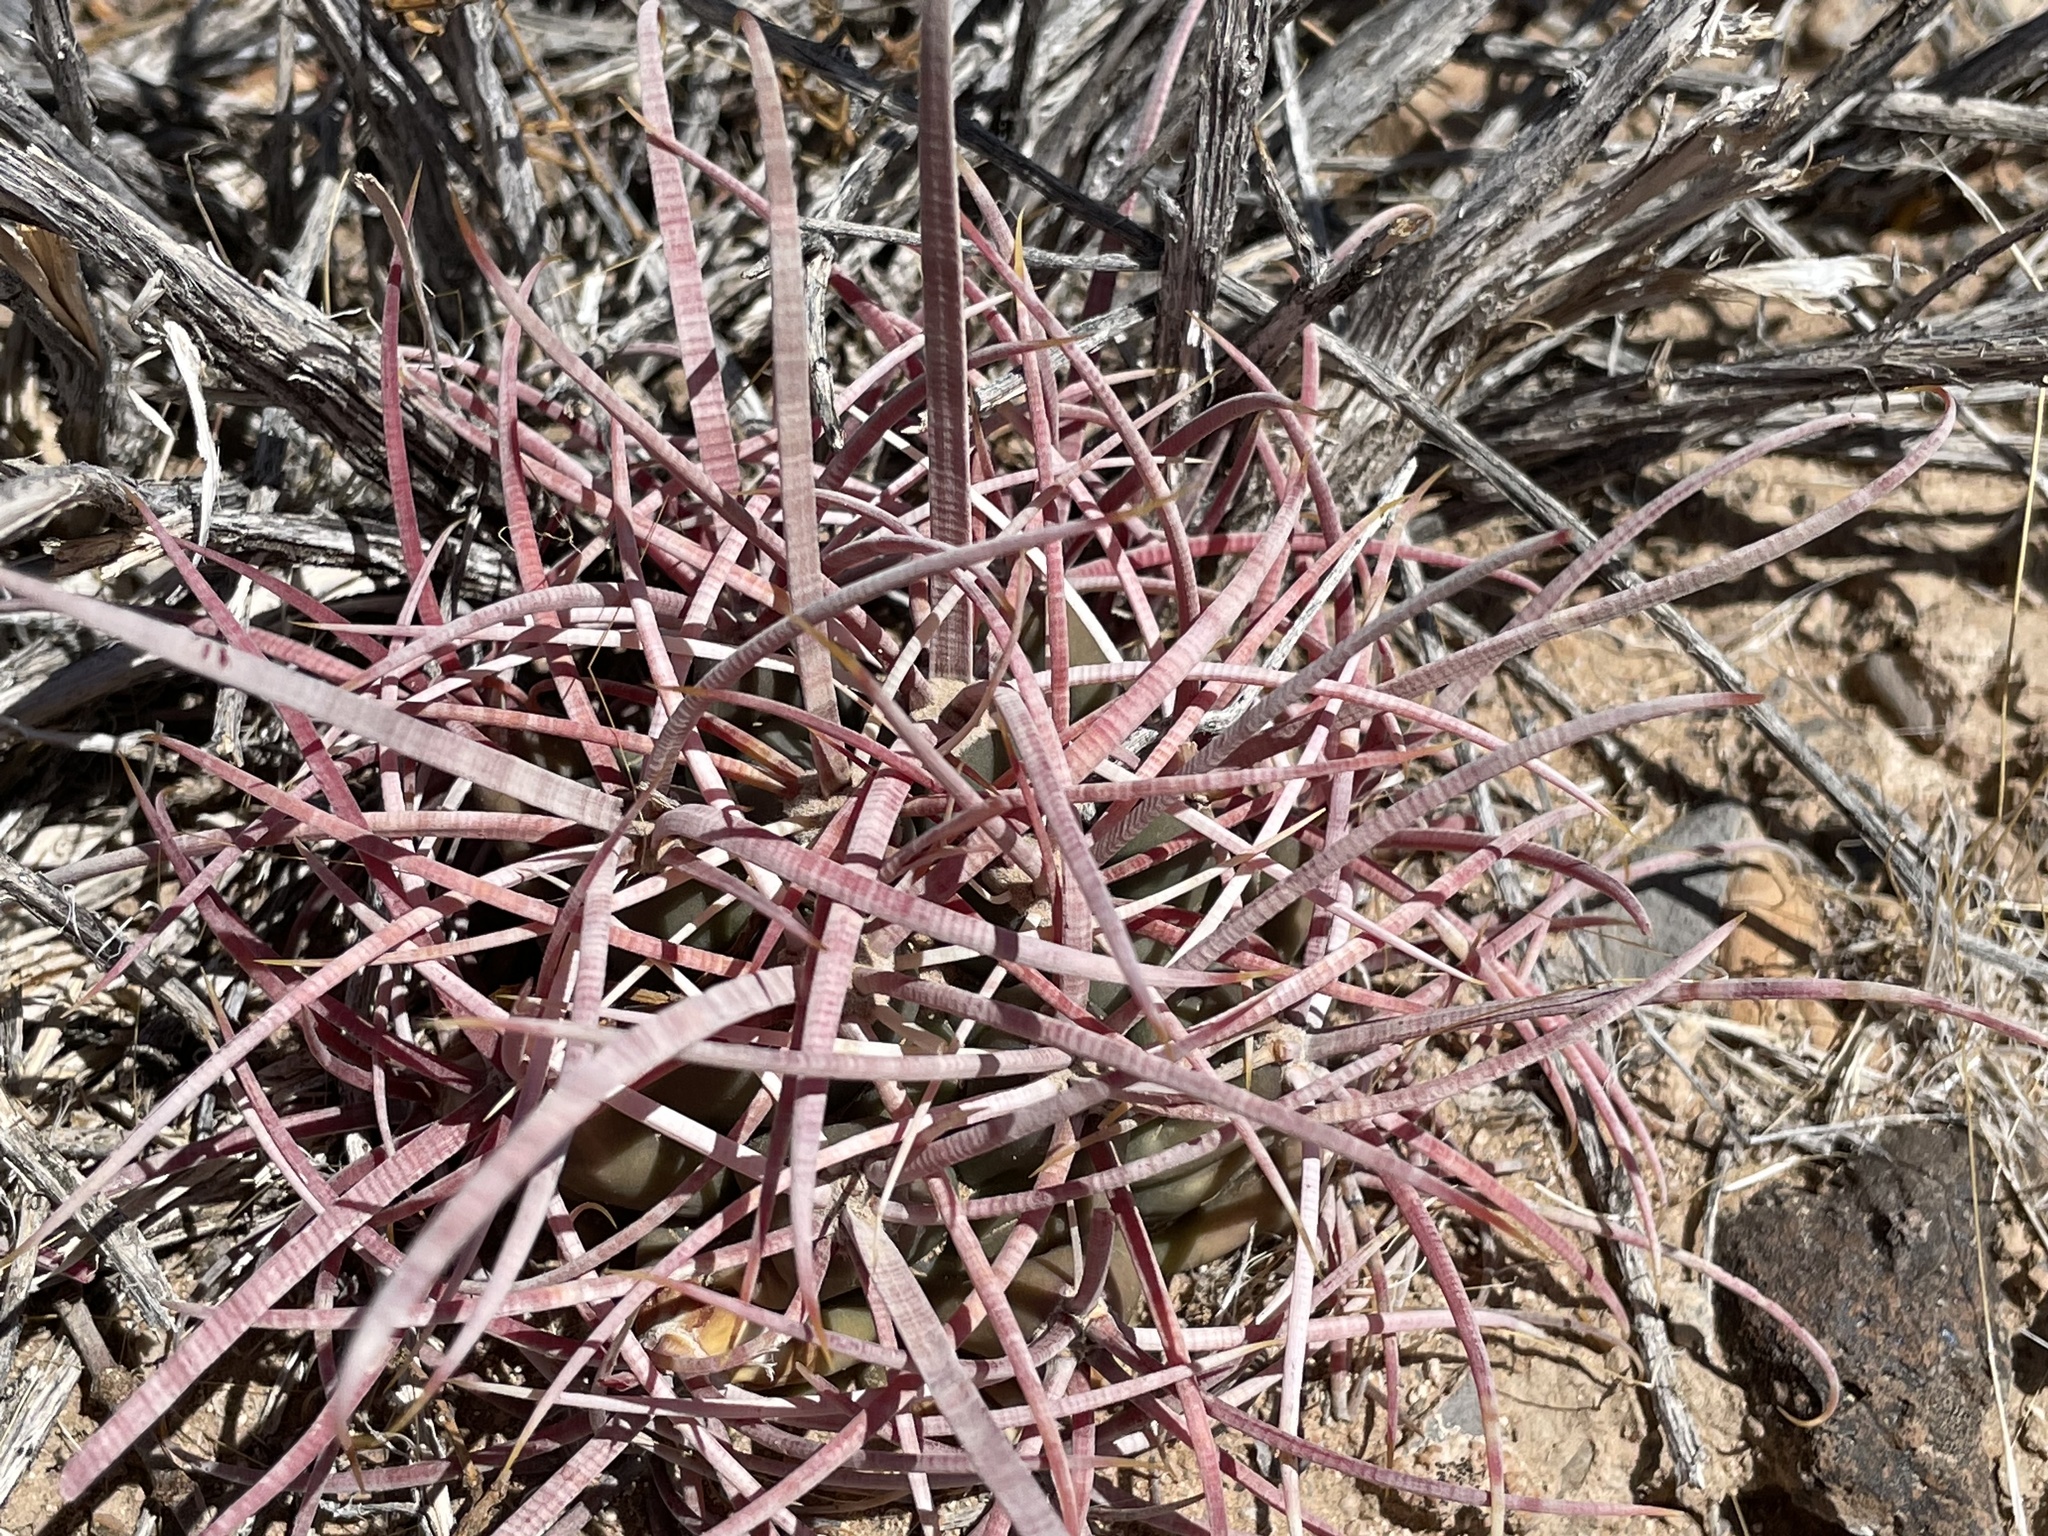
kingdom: Plantae
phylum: Tracheophyta
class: Magnoliopsida
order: Caryophyllales
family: Cactaceae
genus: Ferocactus
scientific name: Ferocactus cylindraceus
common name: California barrel cactus
